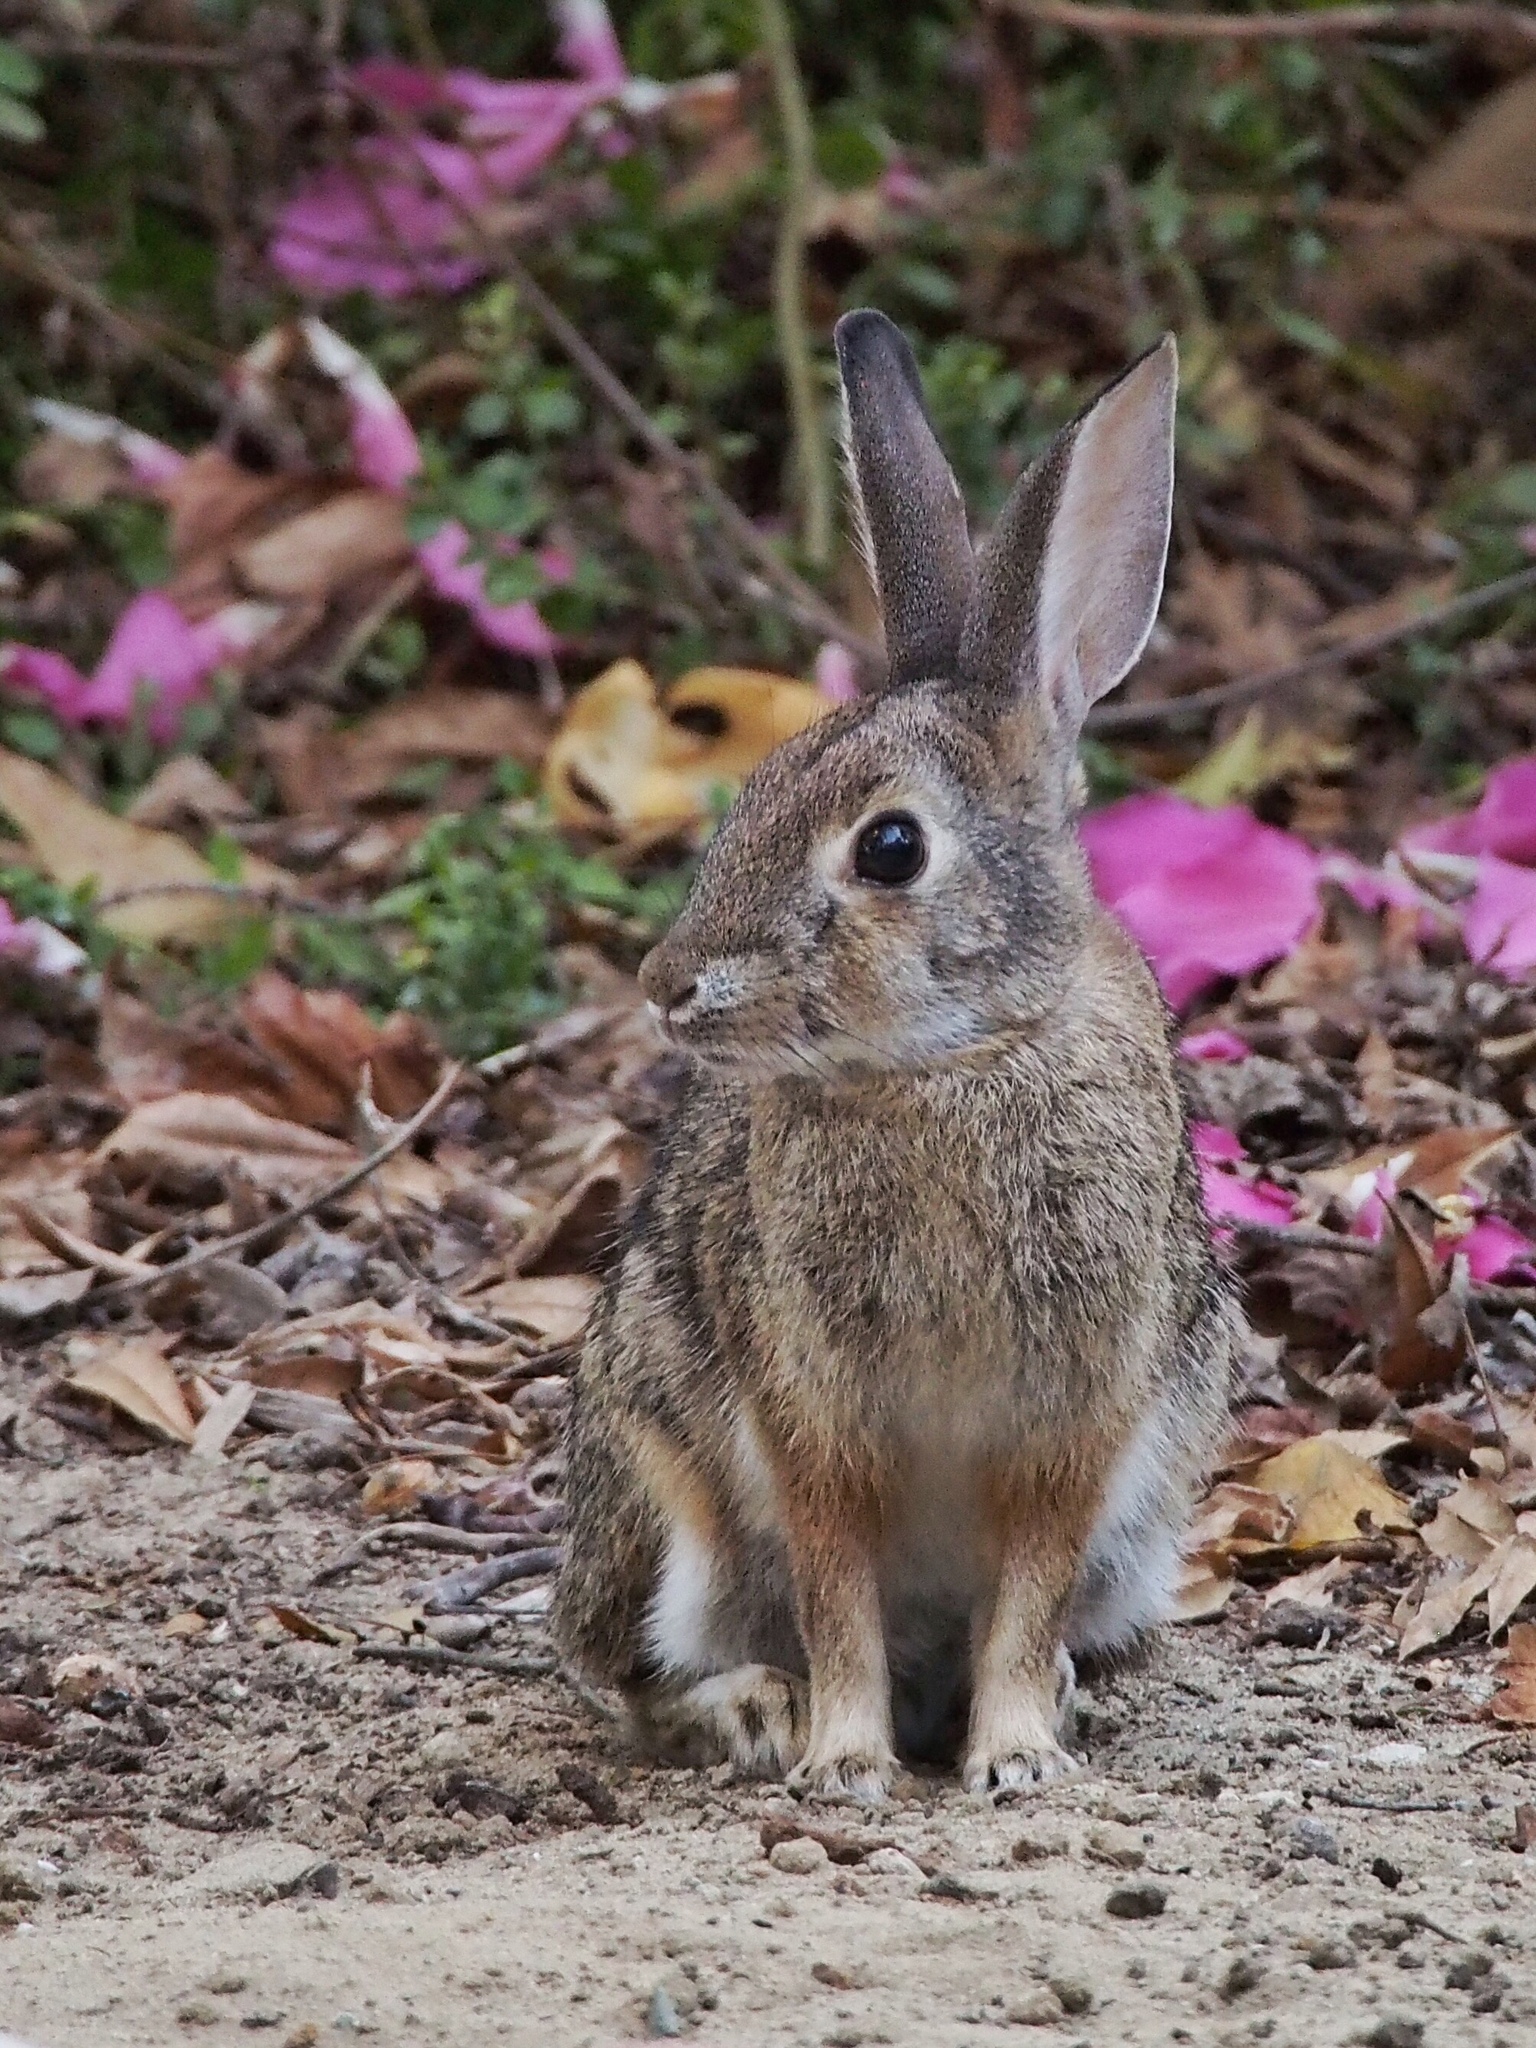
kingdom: Animalia
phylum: Chordata
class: Mammalia
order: Lagomorpha
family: Leporidae
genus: Sylvilagus
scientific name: Sylvilagus audubonii
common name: Desert cottontail
